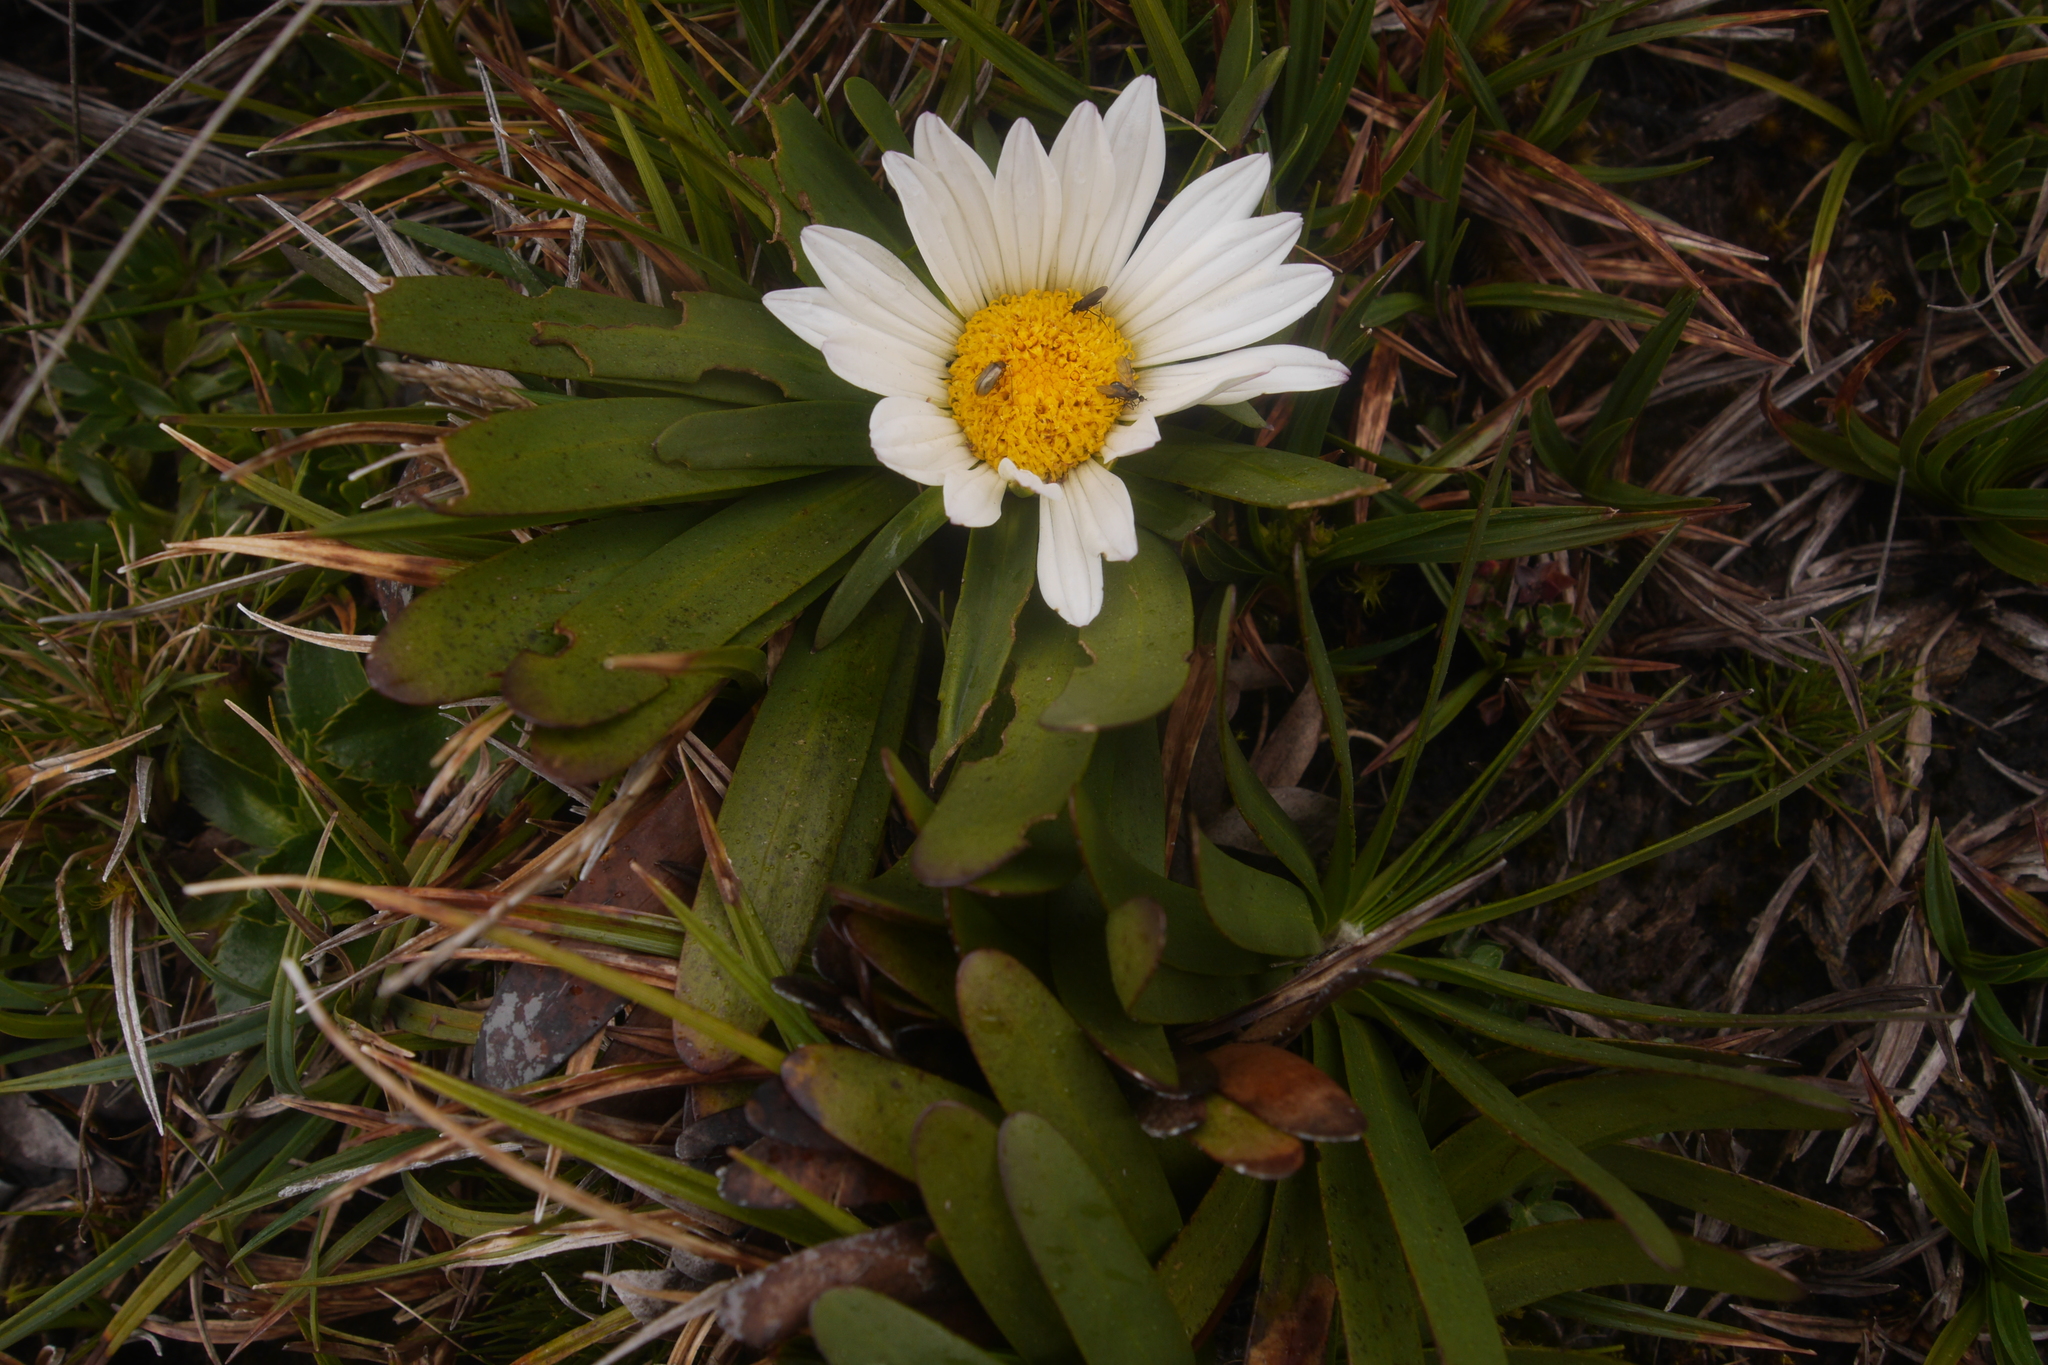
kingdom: Plantae
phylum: Tracheophyta
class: Magnoliopsida
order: Asterales
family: Asteraceae
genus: Rockhausenia
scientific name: Rockhausenia nubigena
